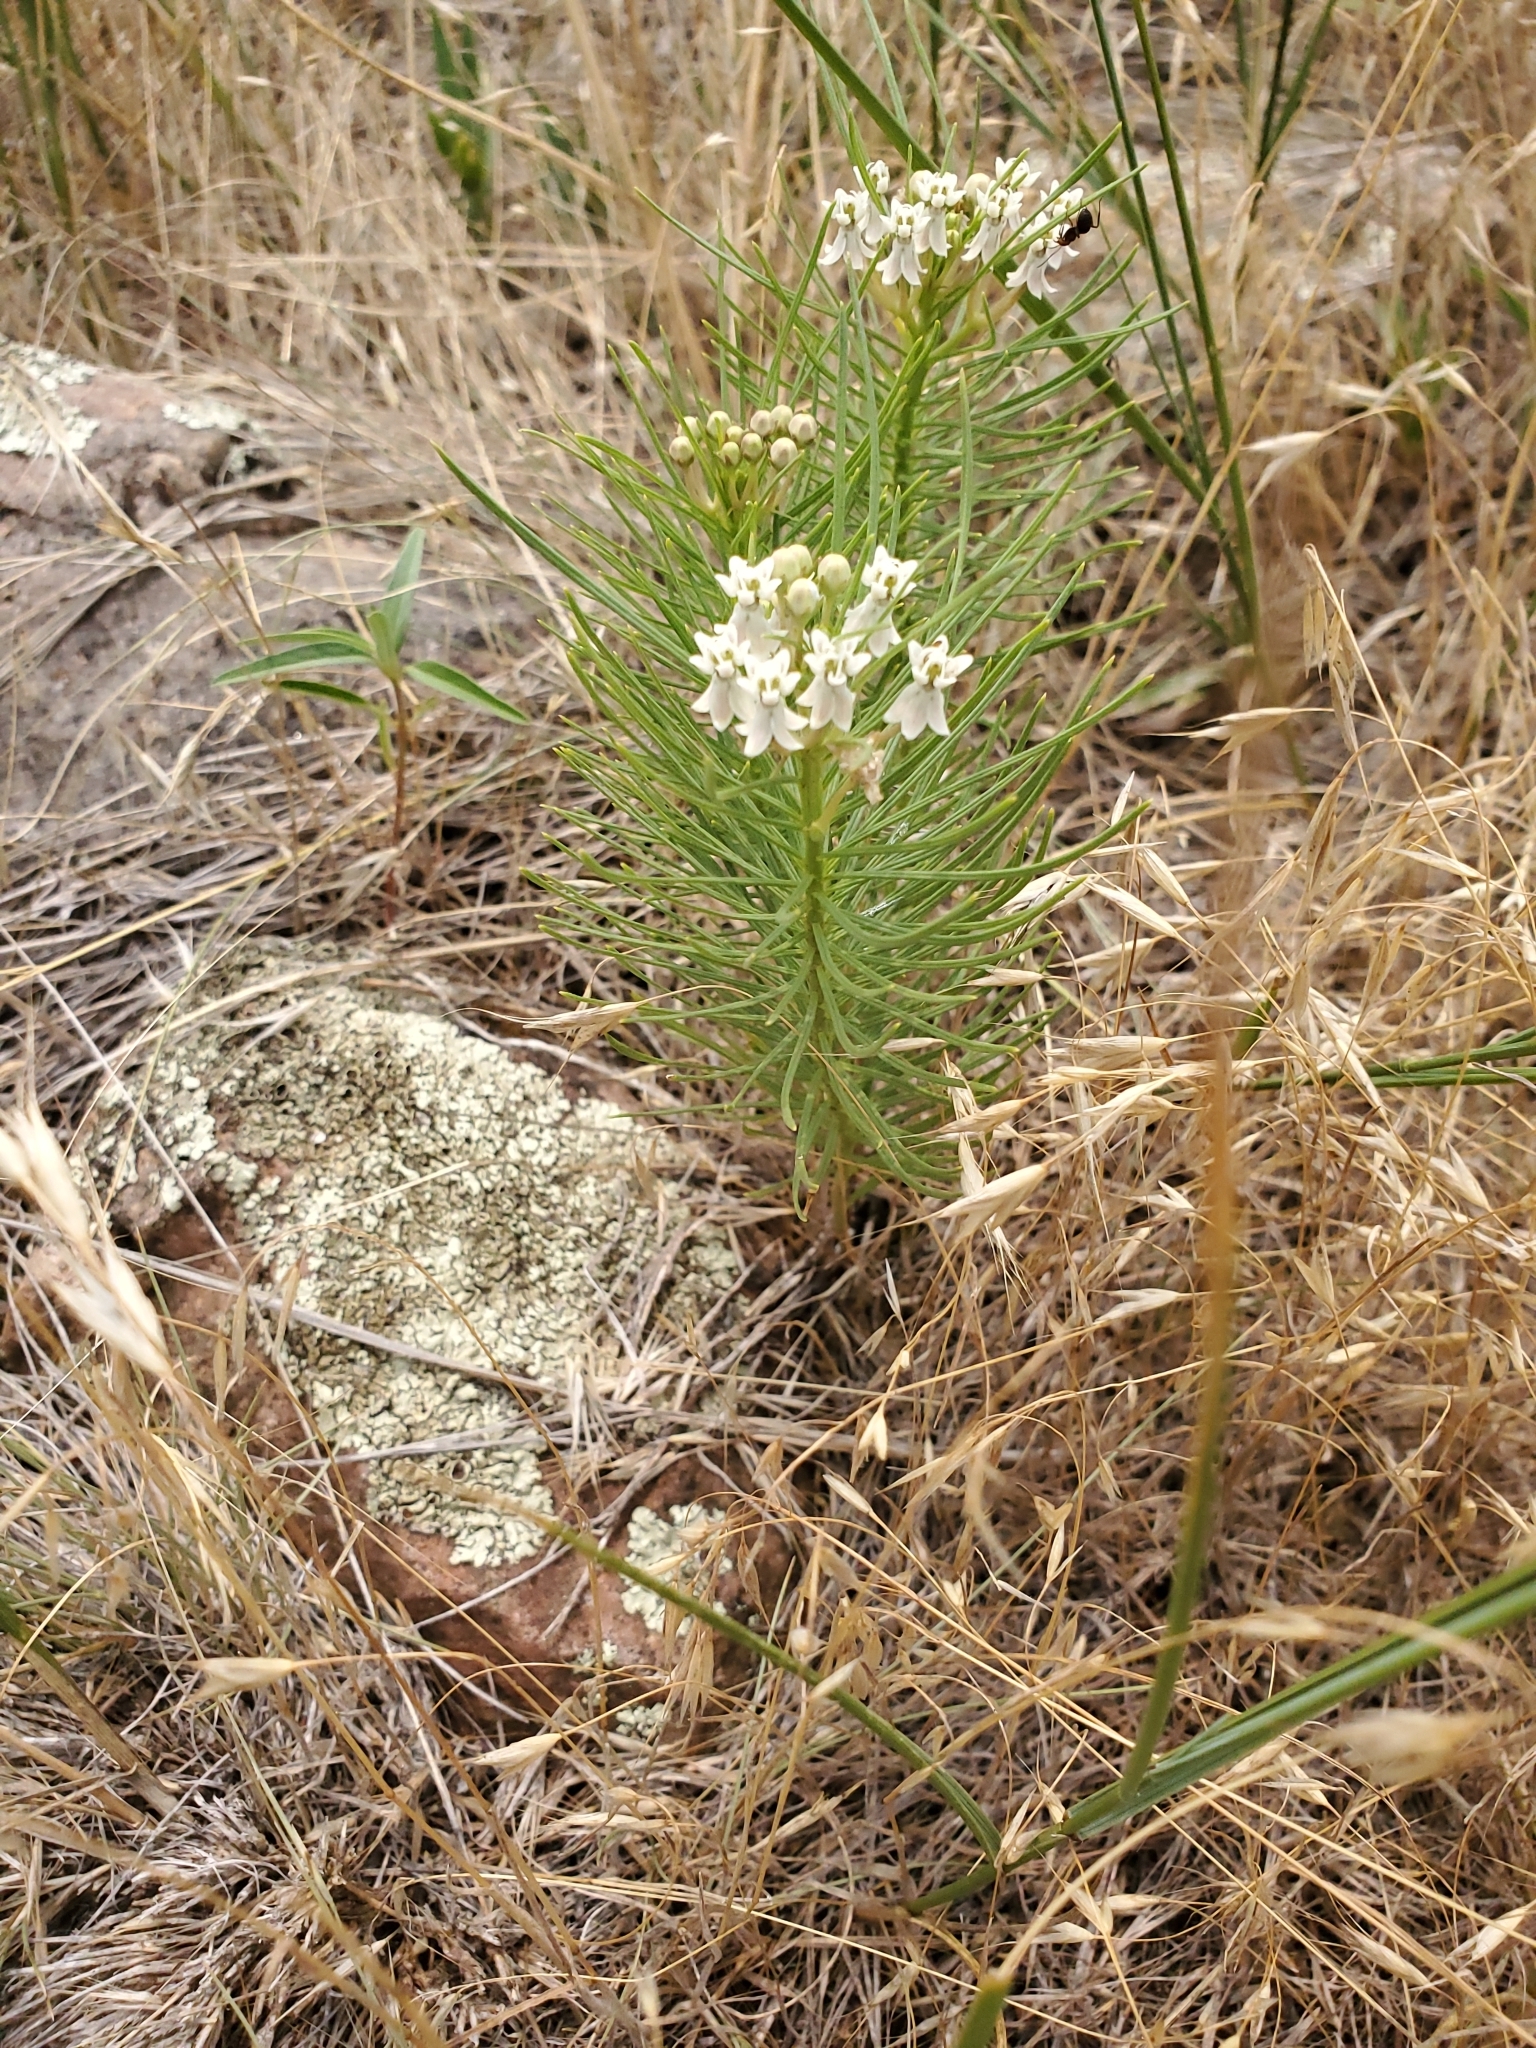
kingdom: Plantae
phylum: Tracheophyta
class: Magnoliopsida
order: Gentianales
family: Apocynaceae
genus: Asclepias
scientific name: Asclepias pumila
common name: Dwarf milkweed
